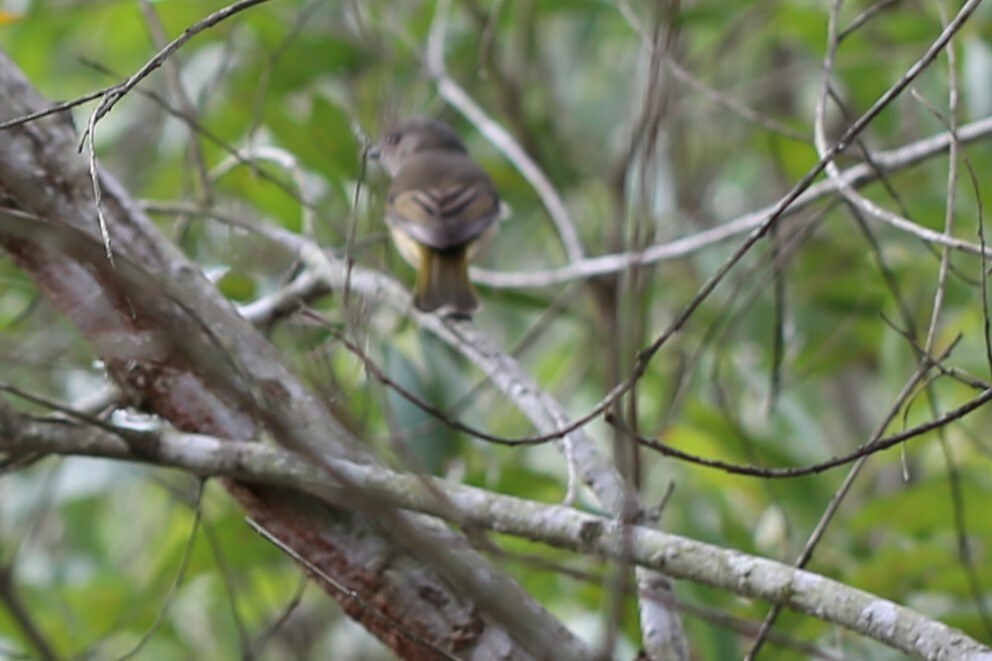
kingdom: Animalia
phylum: Chordata
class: Aves
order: Passeriformes
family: Pachycephalidae
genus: Pachycephala
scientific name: Pachycephala pectoralis
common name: Australian golden whistler
